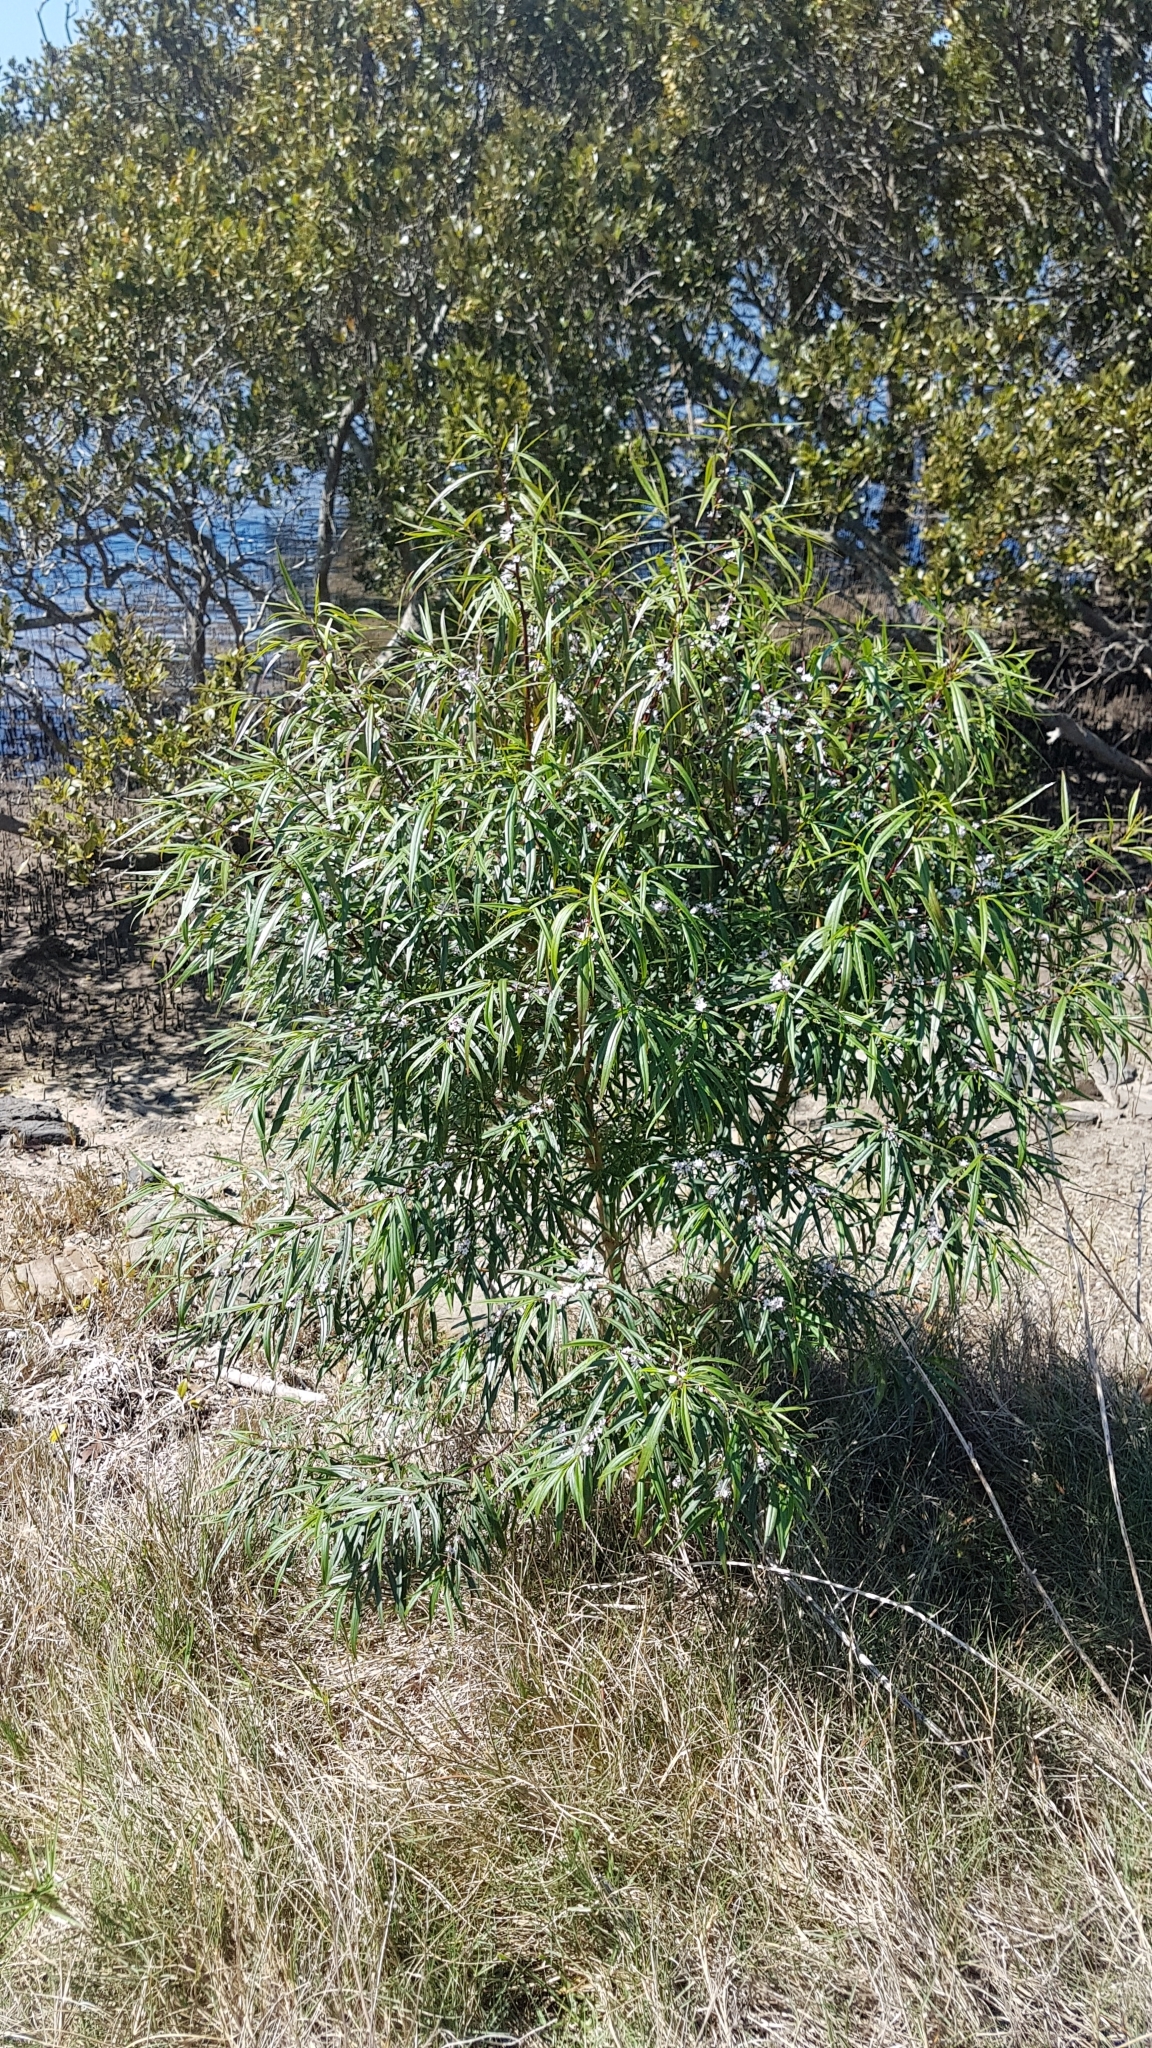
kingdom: Plantae
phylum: Tracheophyta
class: Magnoliopsida
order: Lamiales
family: Scrophulariaceae
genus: Myoporum
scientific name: Myoporum bateae
